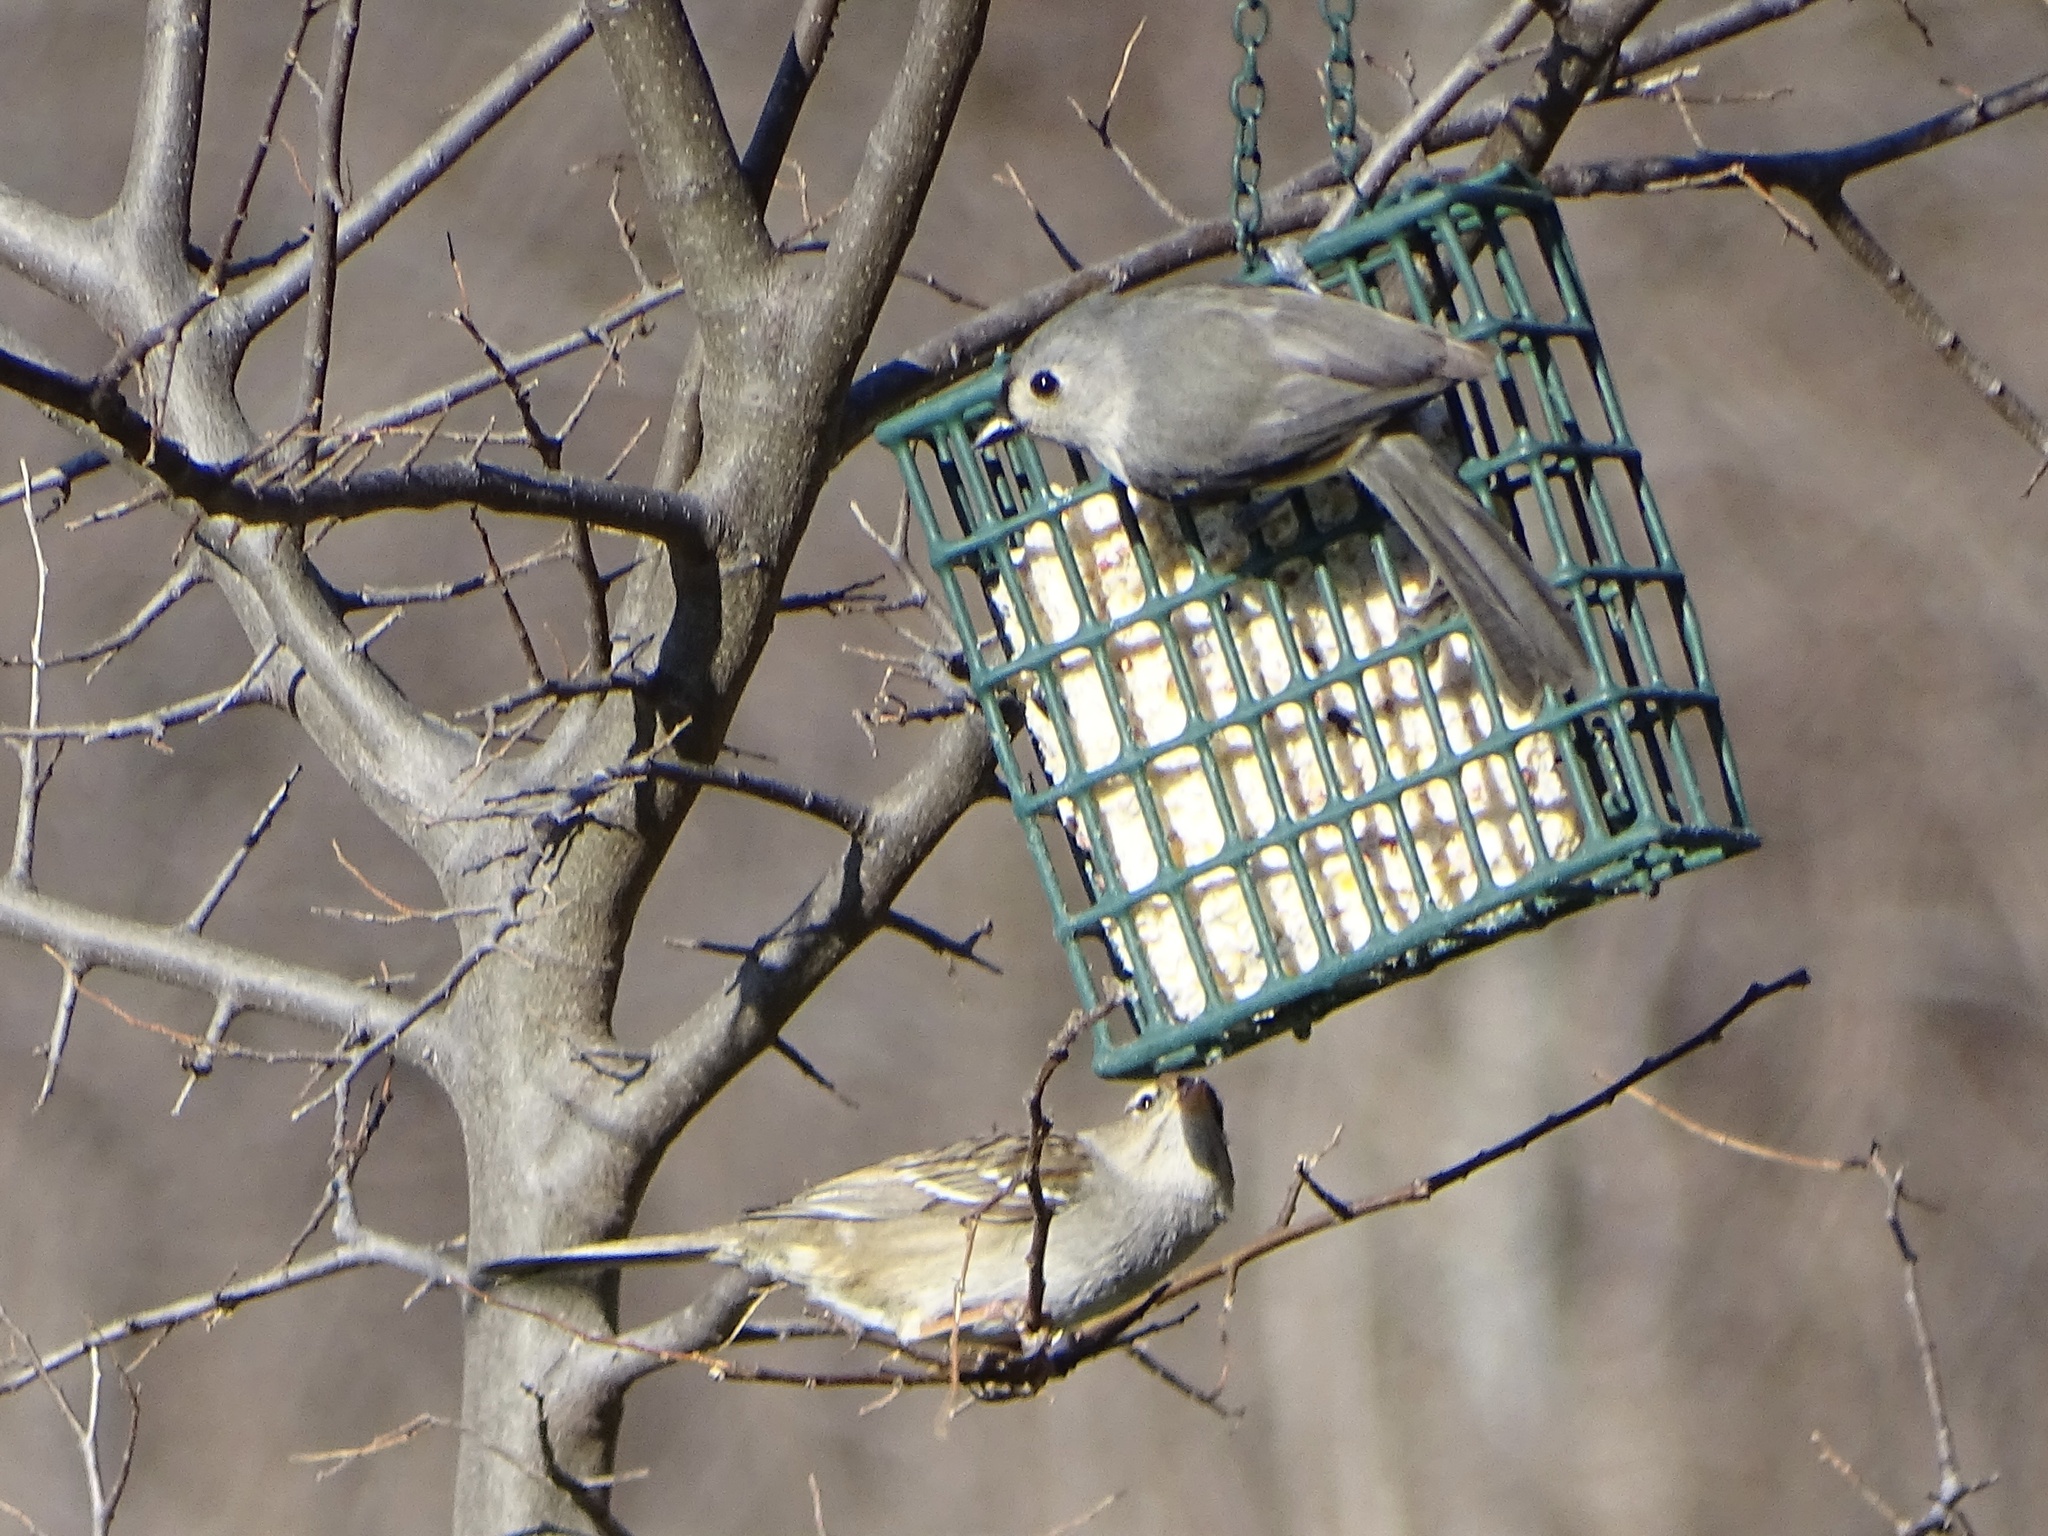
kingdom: Animalia
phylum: Chordata
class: Aves
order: Passeriformes
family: Paridae
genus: Baeolophus
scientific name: Baeolophus bicolor
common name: Tufted titmouse
